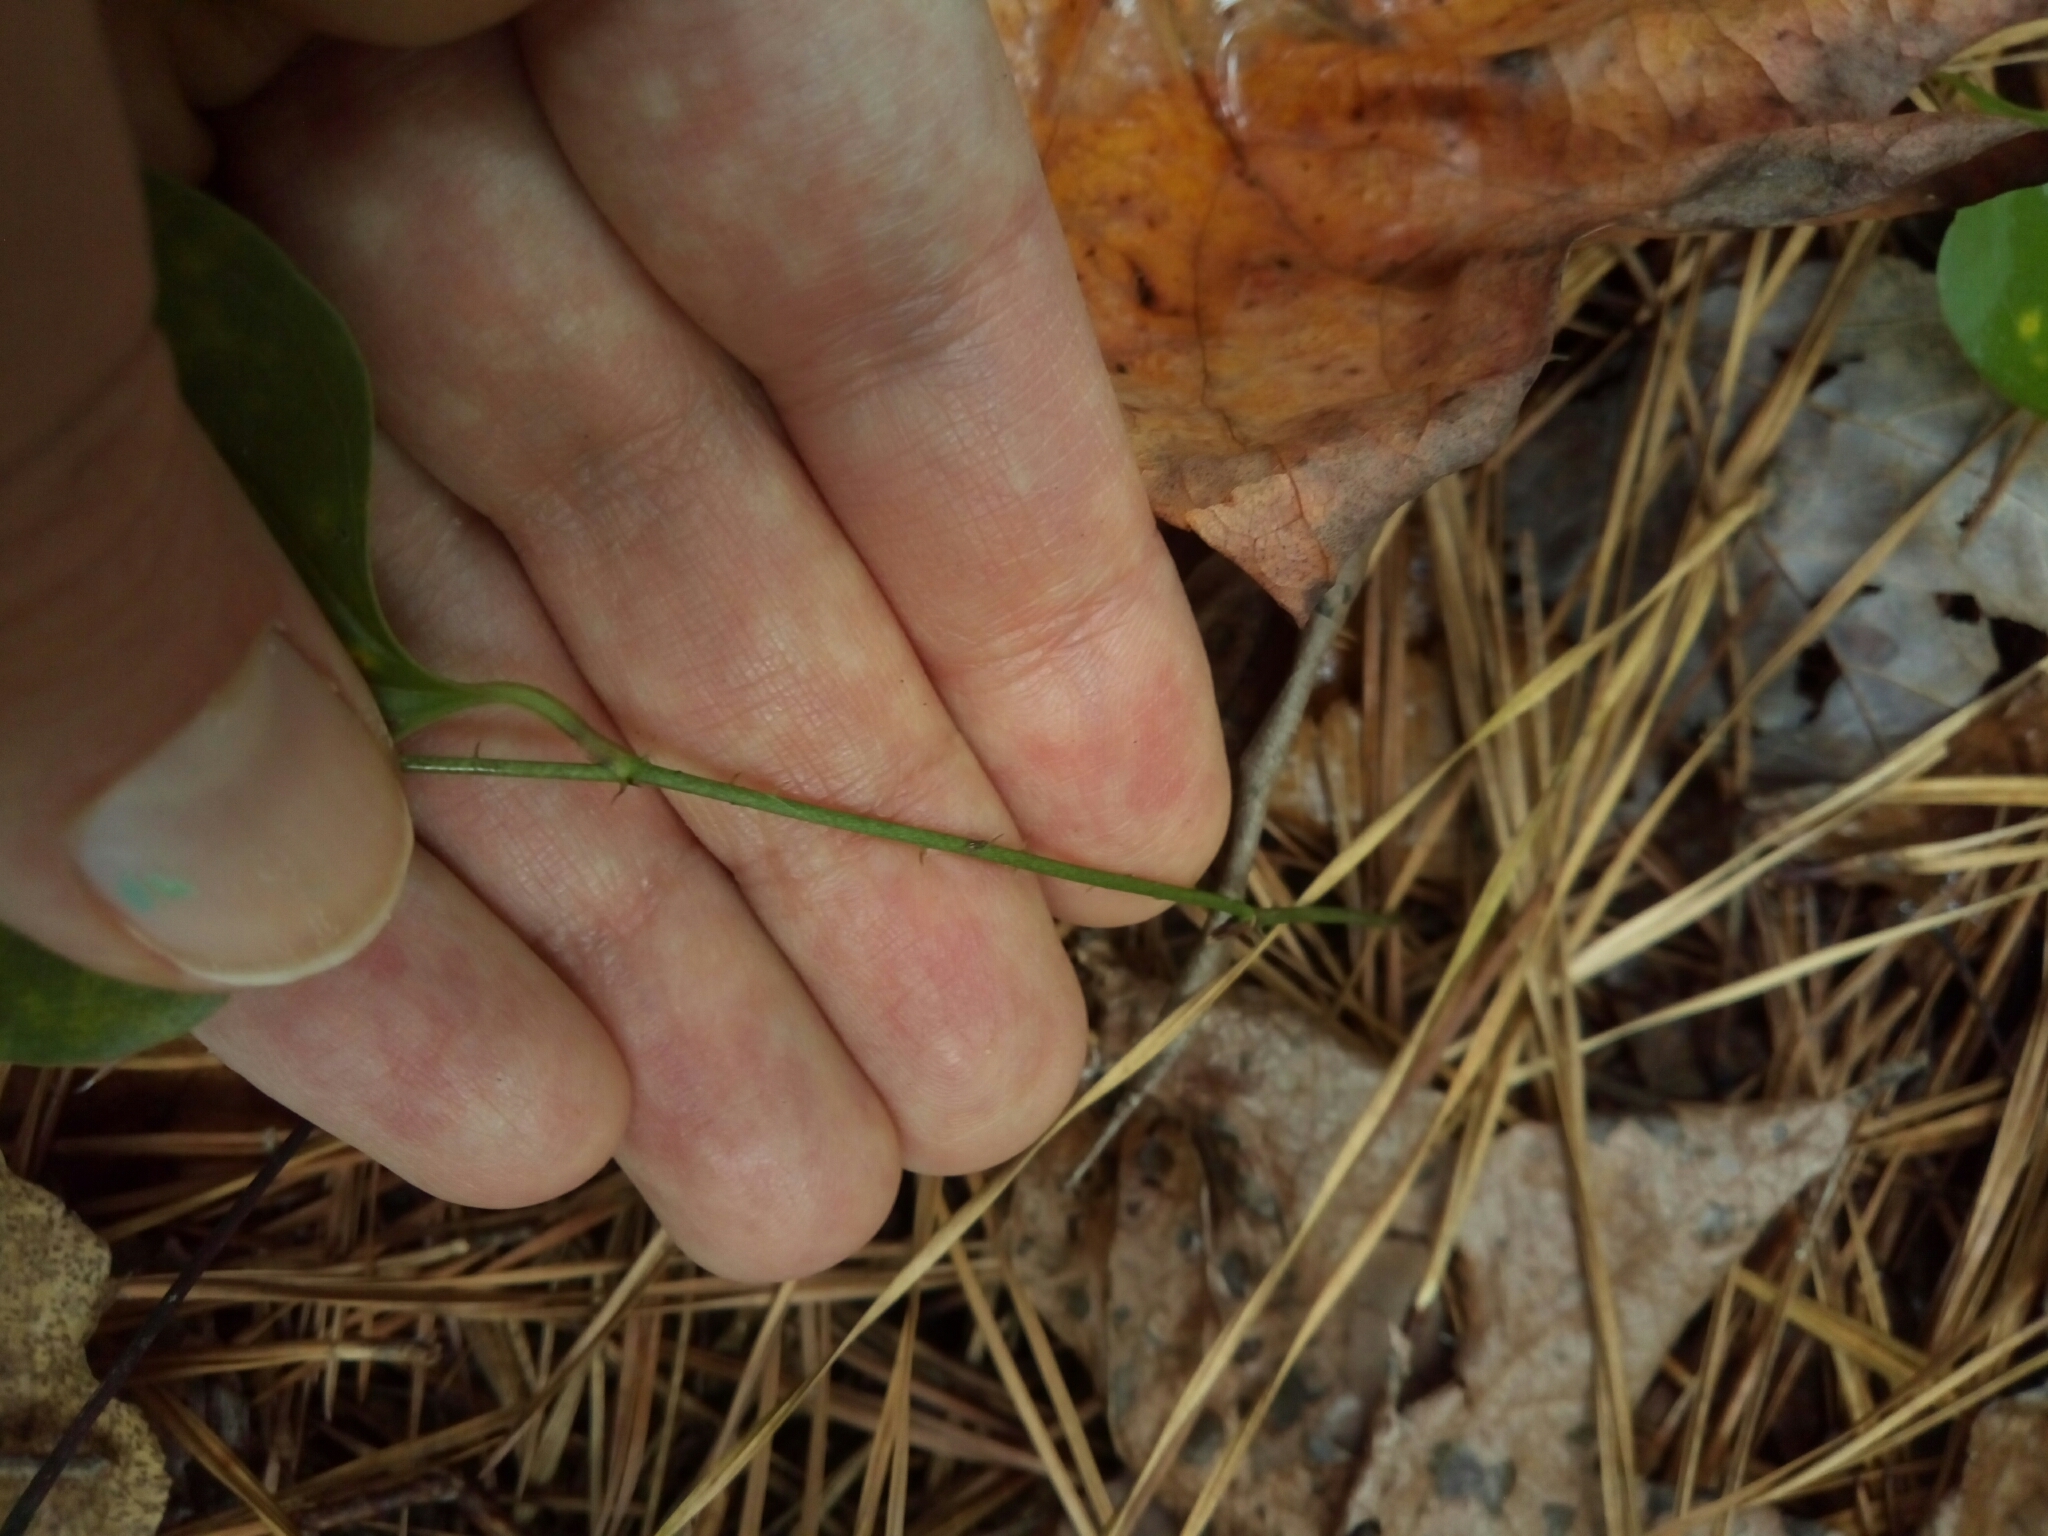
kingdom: Plantae
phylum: Tracheophyta
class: Liliopsida
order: Liliales
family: Smilacaceae
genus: Smilax
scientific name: Smilax glauca
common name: Cat greenbrier
